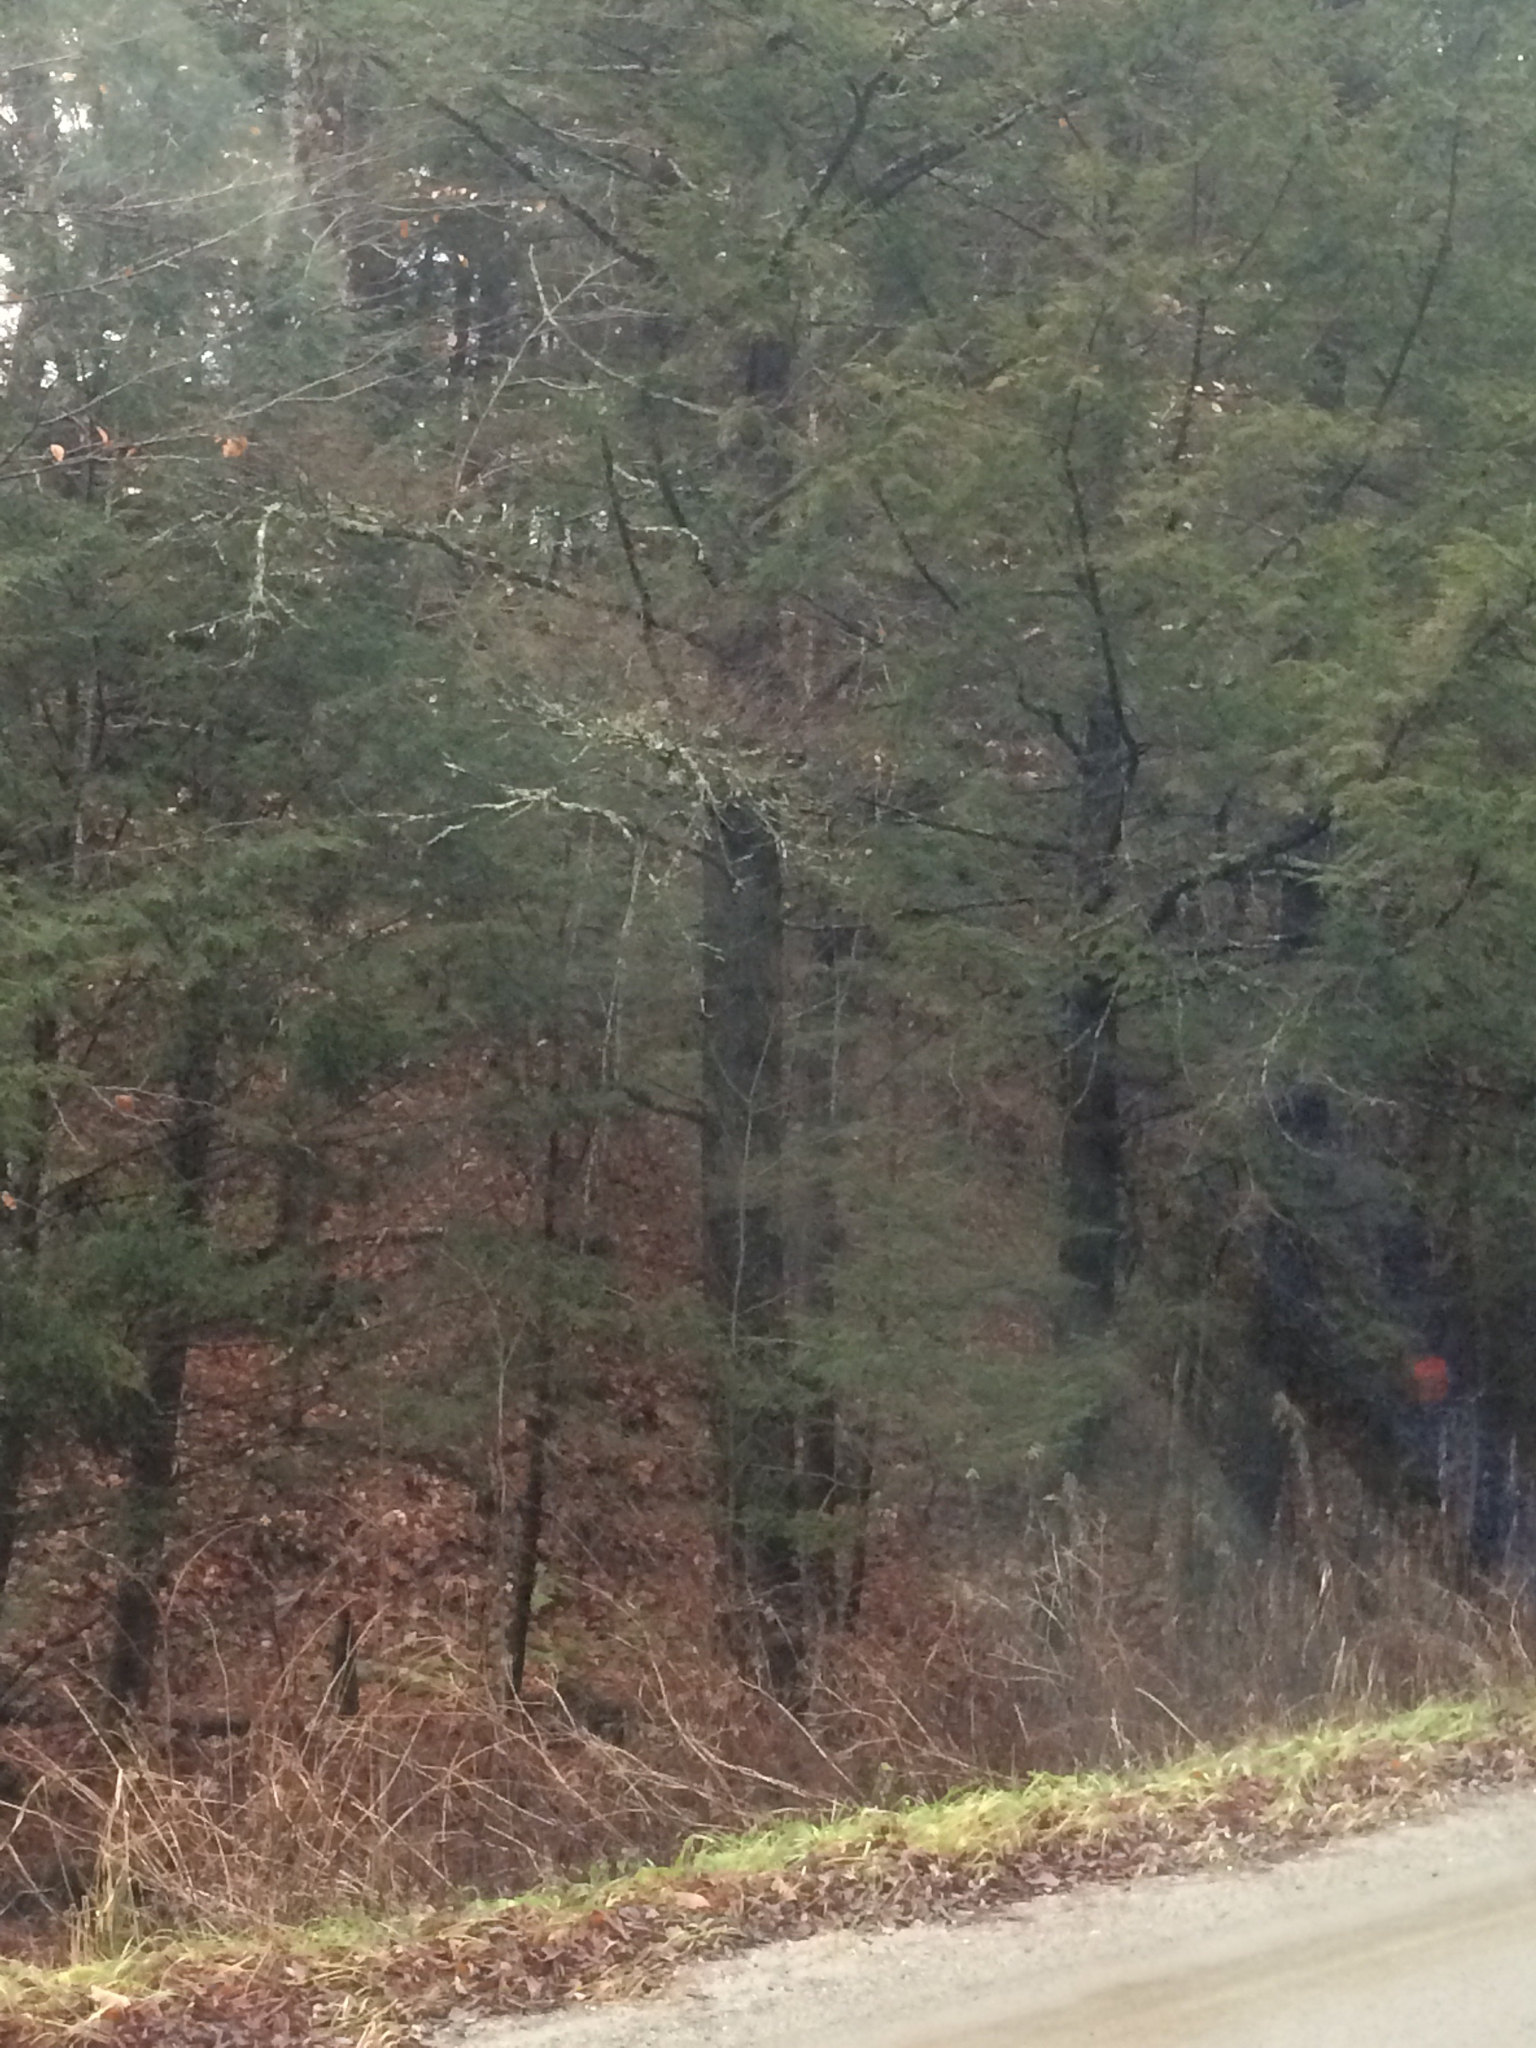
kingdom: Plantae
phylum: Tracheophyta
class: Pinopsida
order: Pinales
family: Pinaceae
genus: Tsuga
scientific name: Tsuga canadensis
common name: Eastern hemlock
